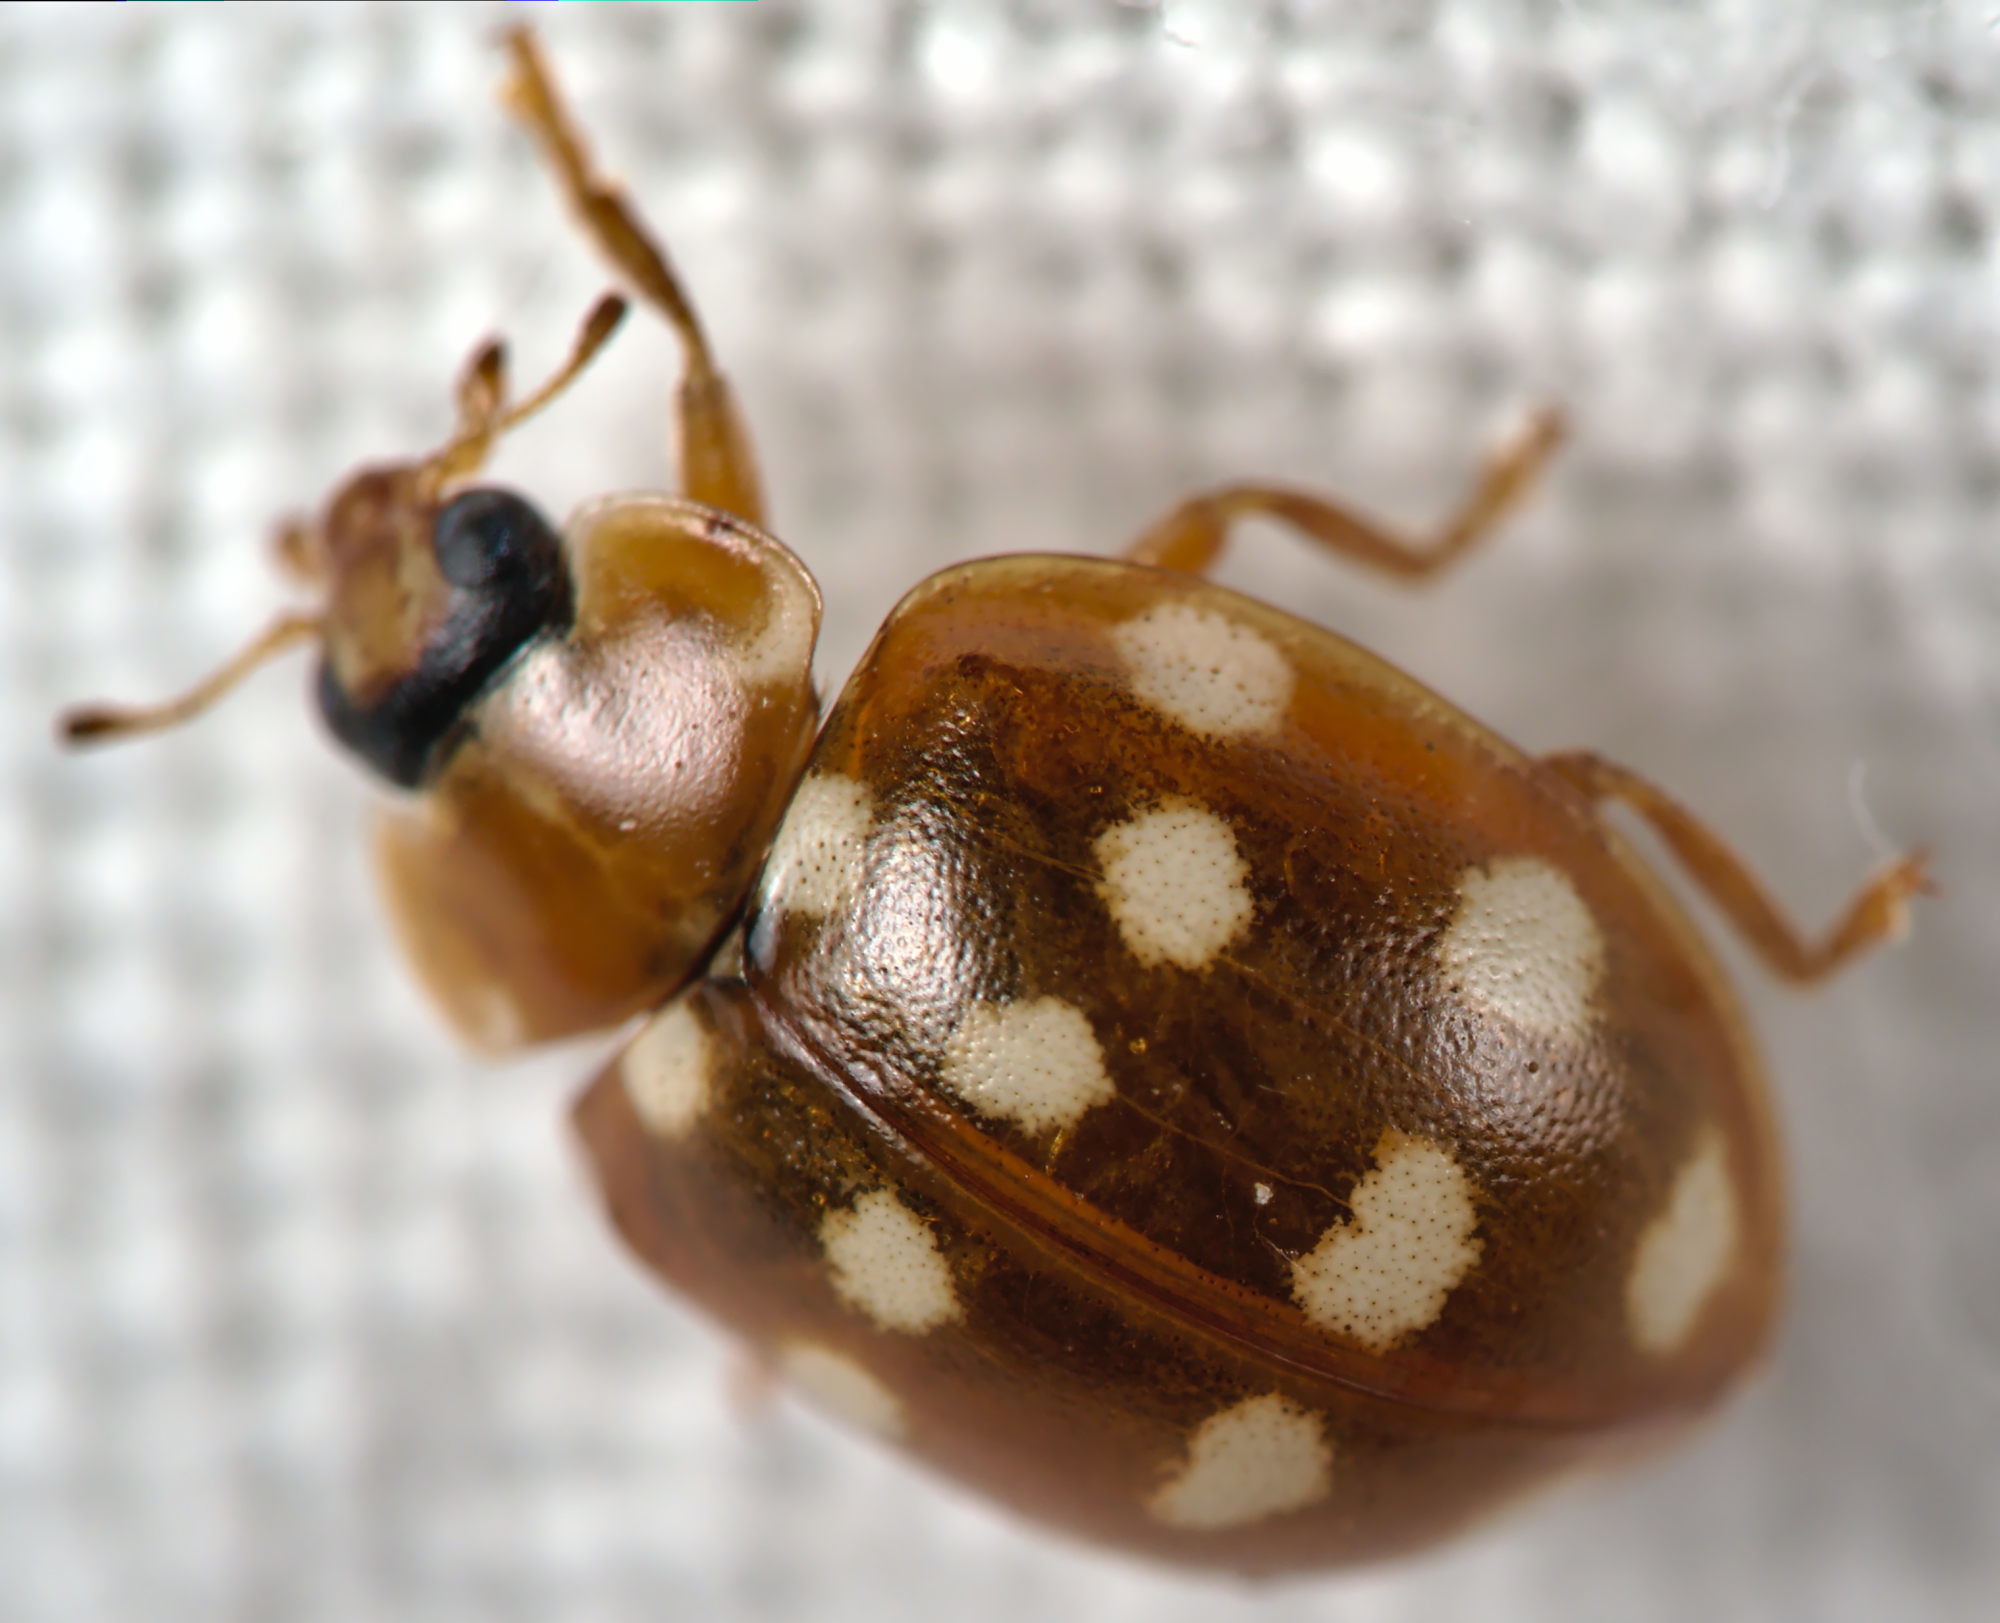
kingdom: Animalia
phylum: Arthropoda
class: Insecta
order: Coleoptera
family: Coccinellidae
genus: Calvia
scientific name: Calvia quatuordecimguttata
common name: Cream-spot ladybird
